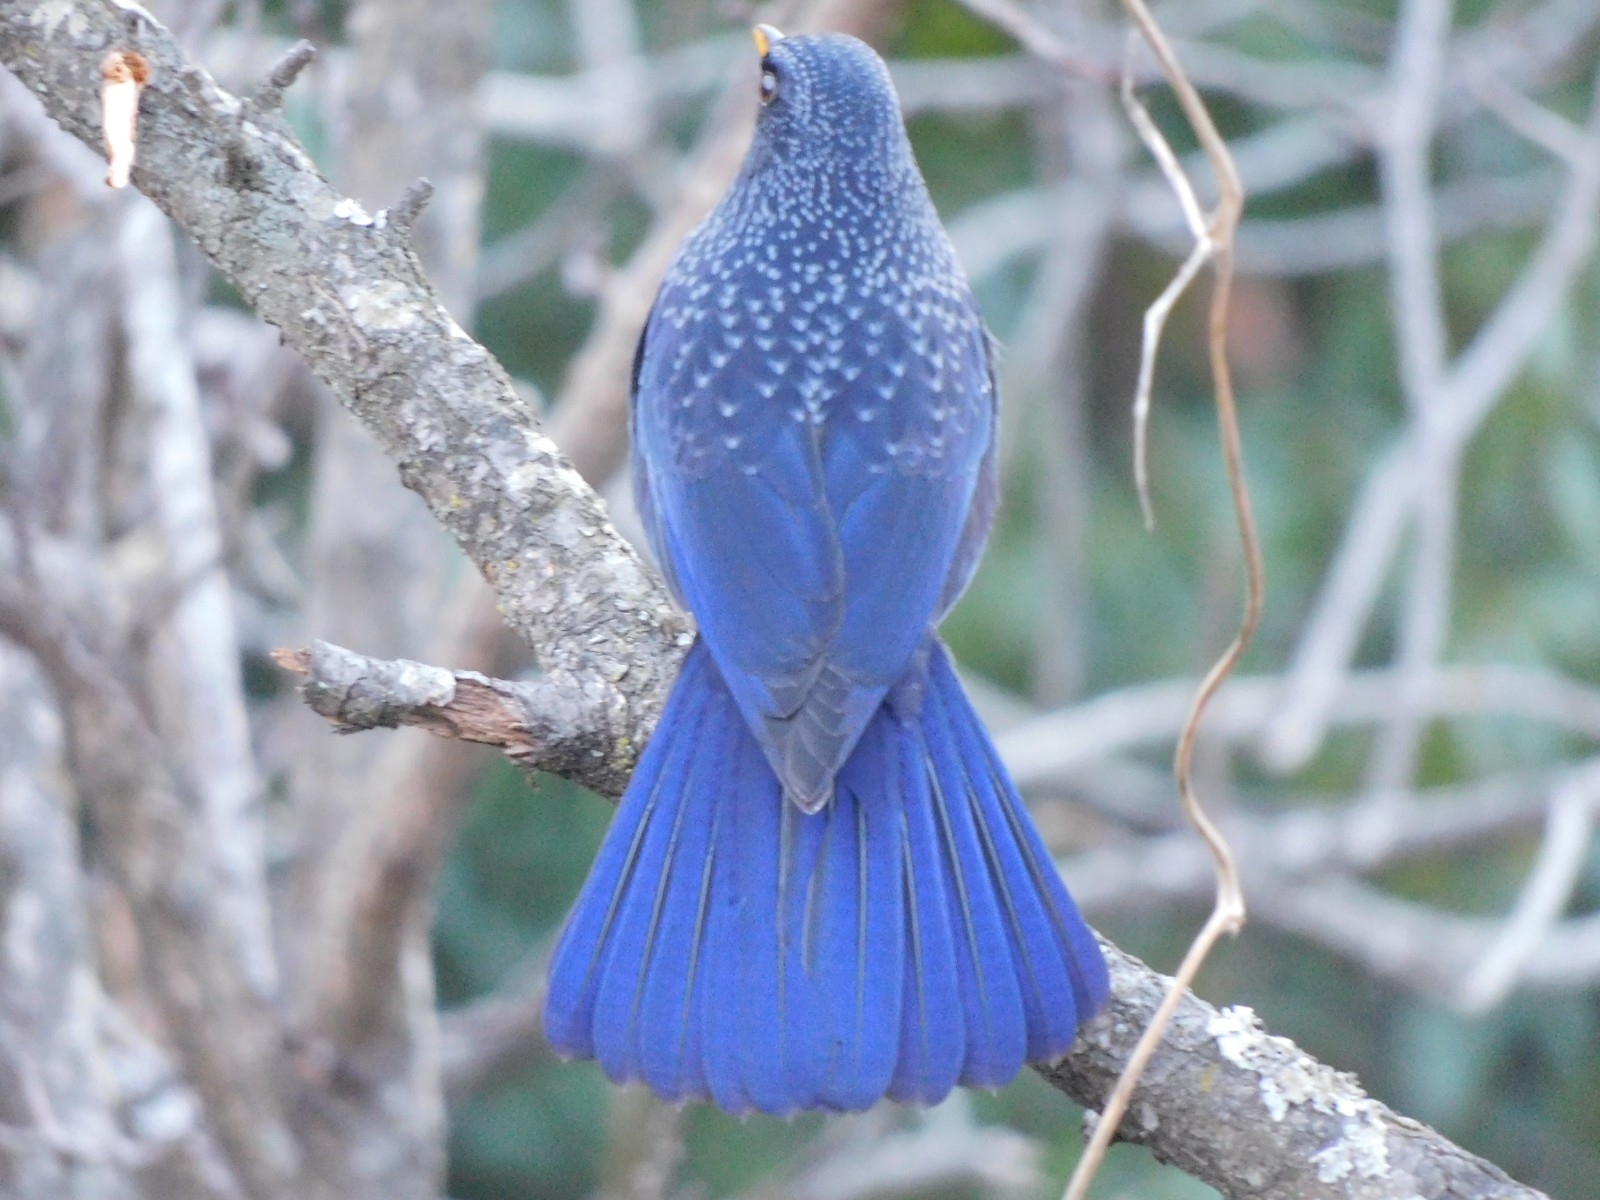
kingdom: Animalia
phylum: Chordata
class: Aves
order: Passeriformes
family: Muscicapidae
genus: Myophonus
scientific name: Myophonus caeruleus
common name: Blue whistling-thrush
